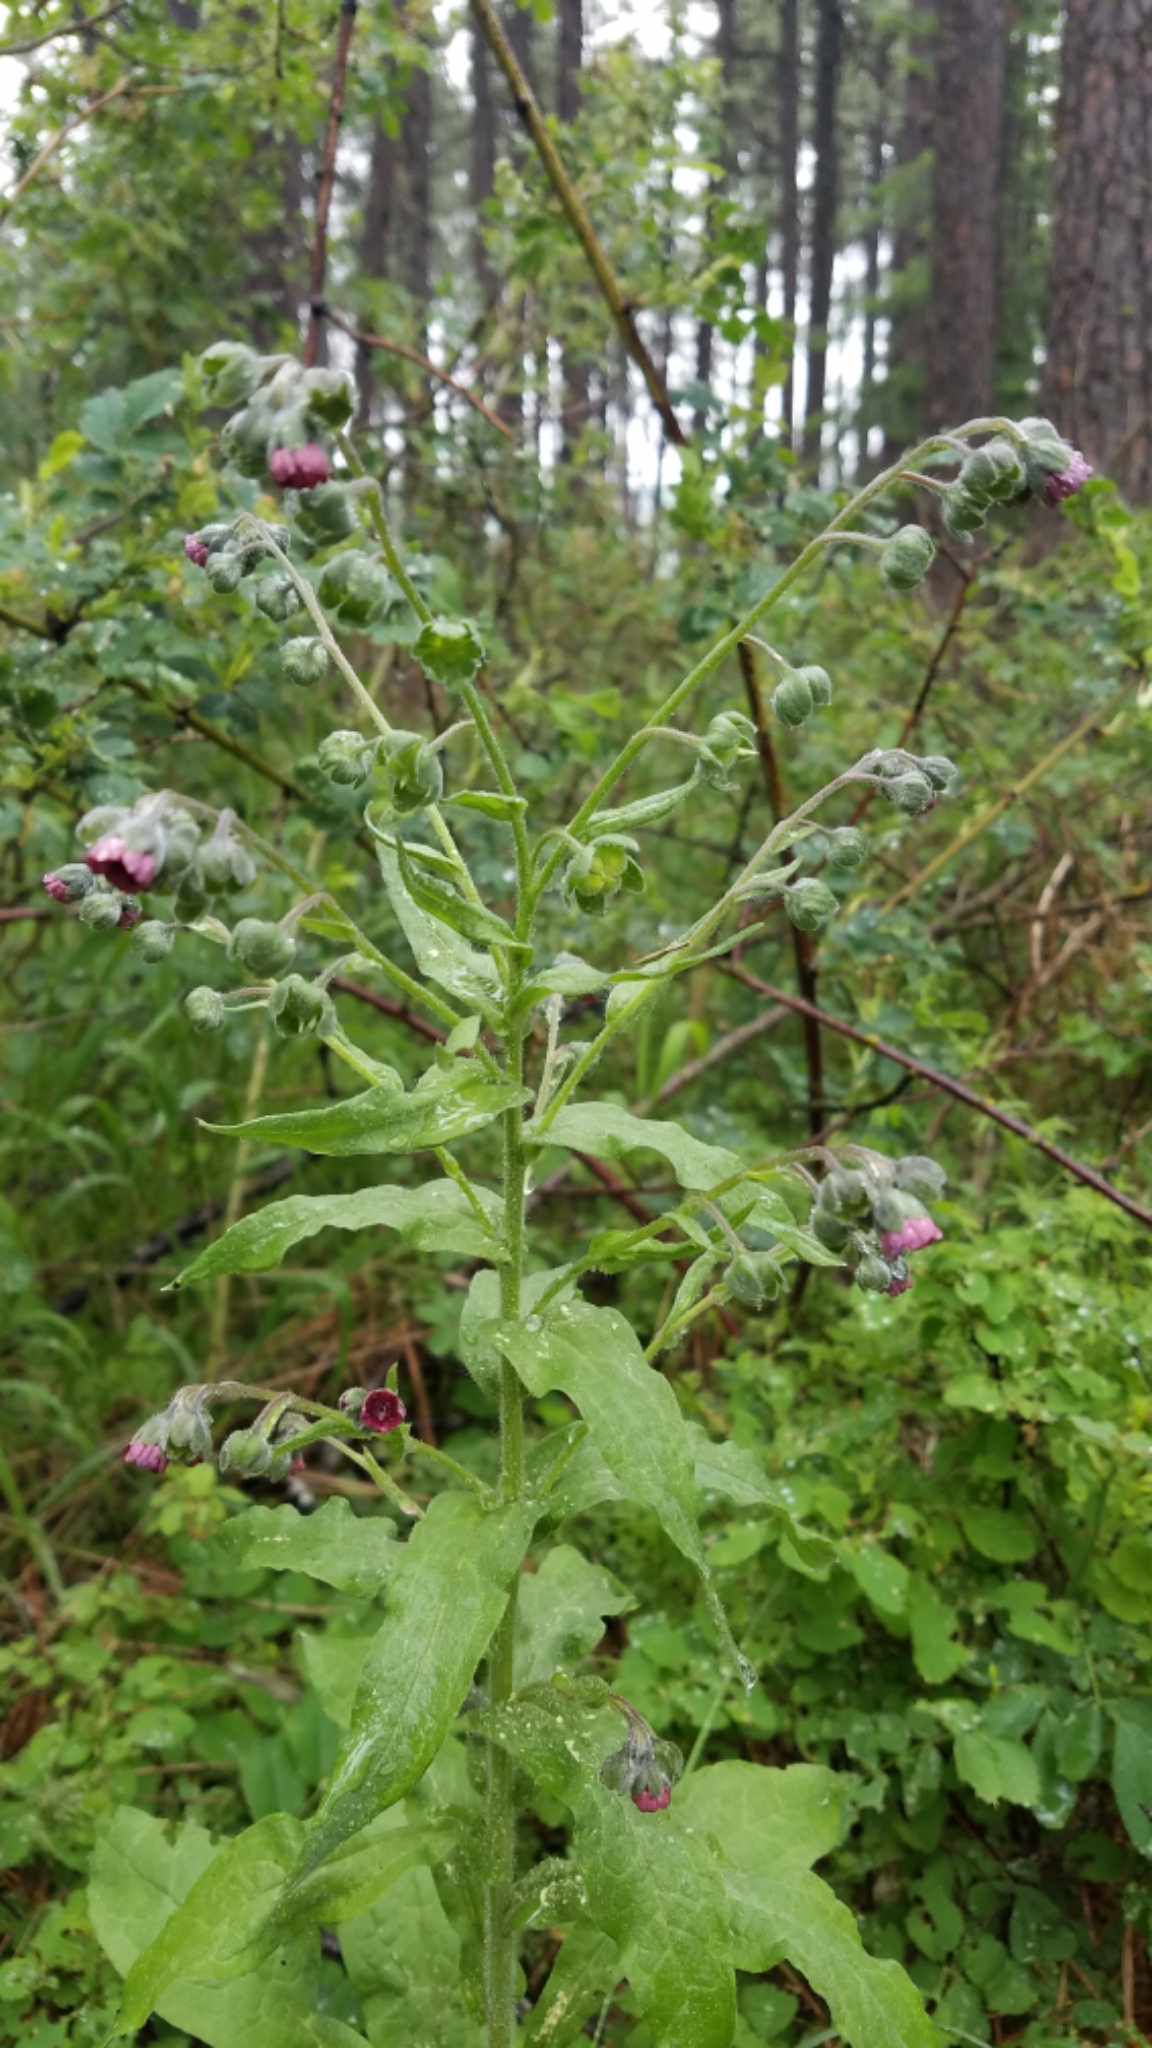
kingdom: Plantae
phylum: Tracheophyta
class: Magnoliopsida
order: Boraginales
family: Boraginaceae
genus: Cynoglossum
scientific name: Cynoglossum officinale
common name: Hound's-tongue
